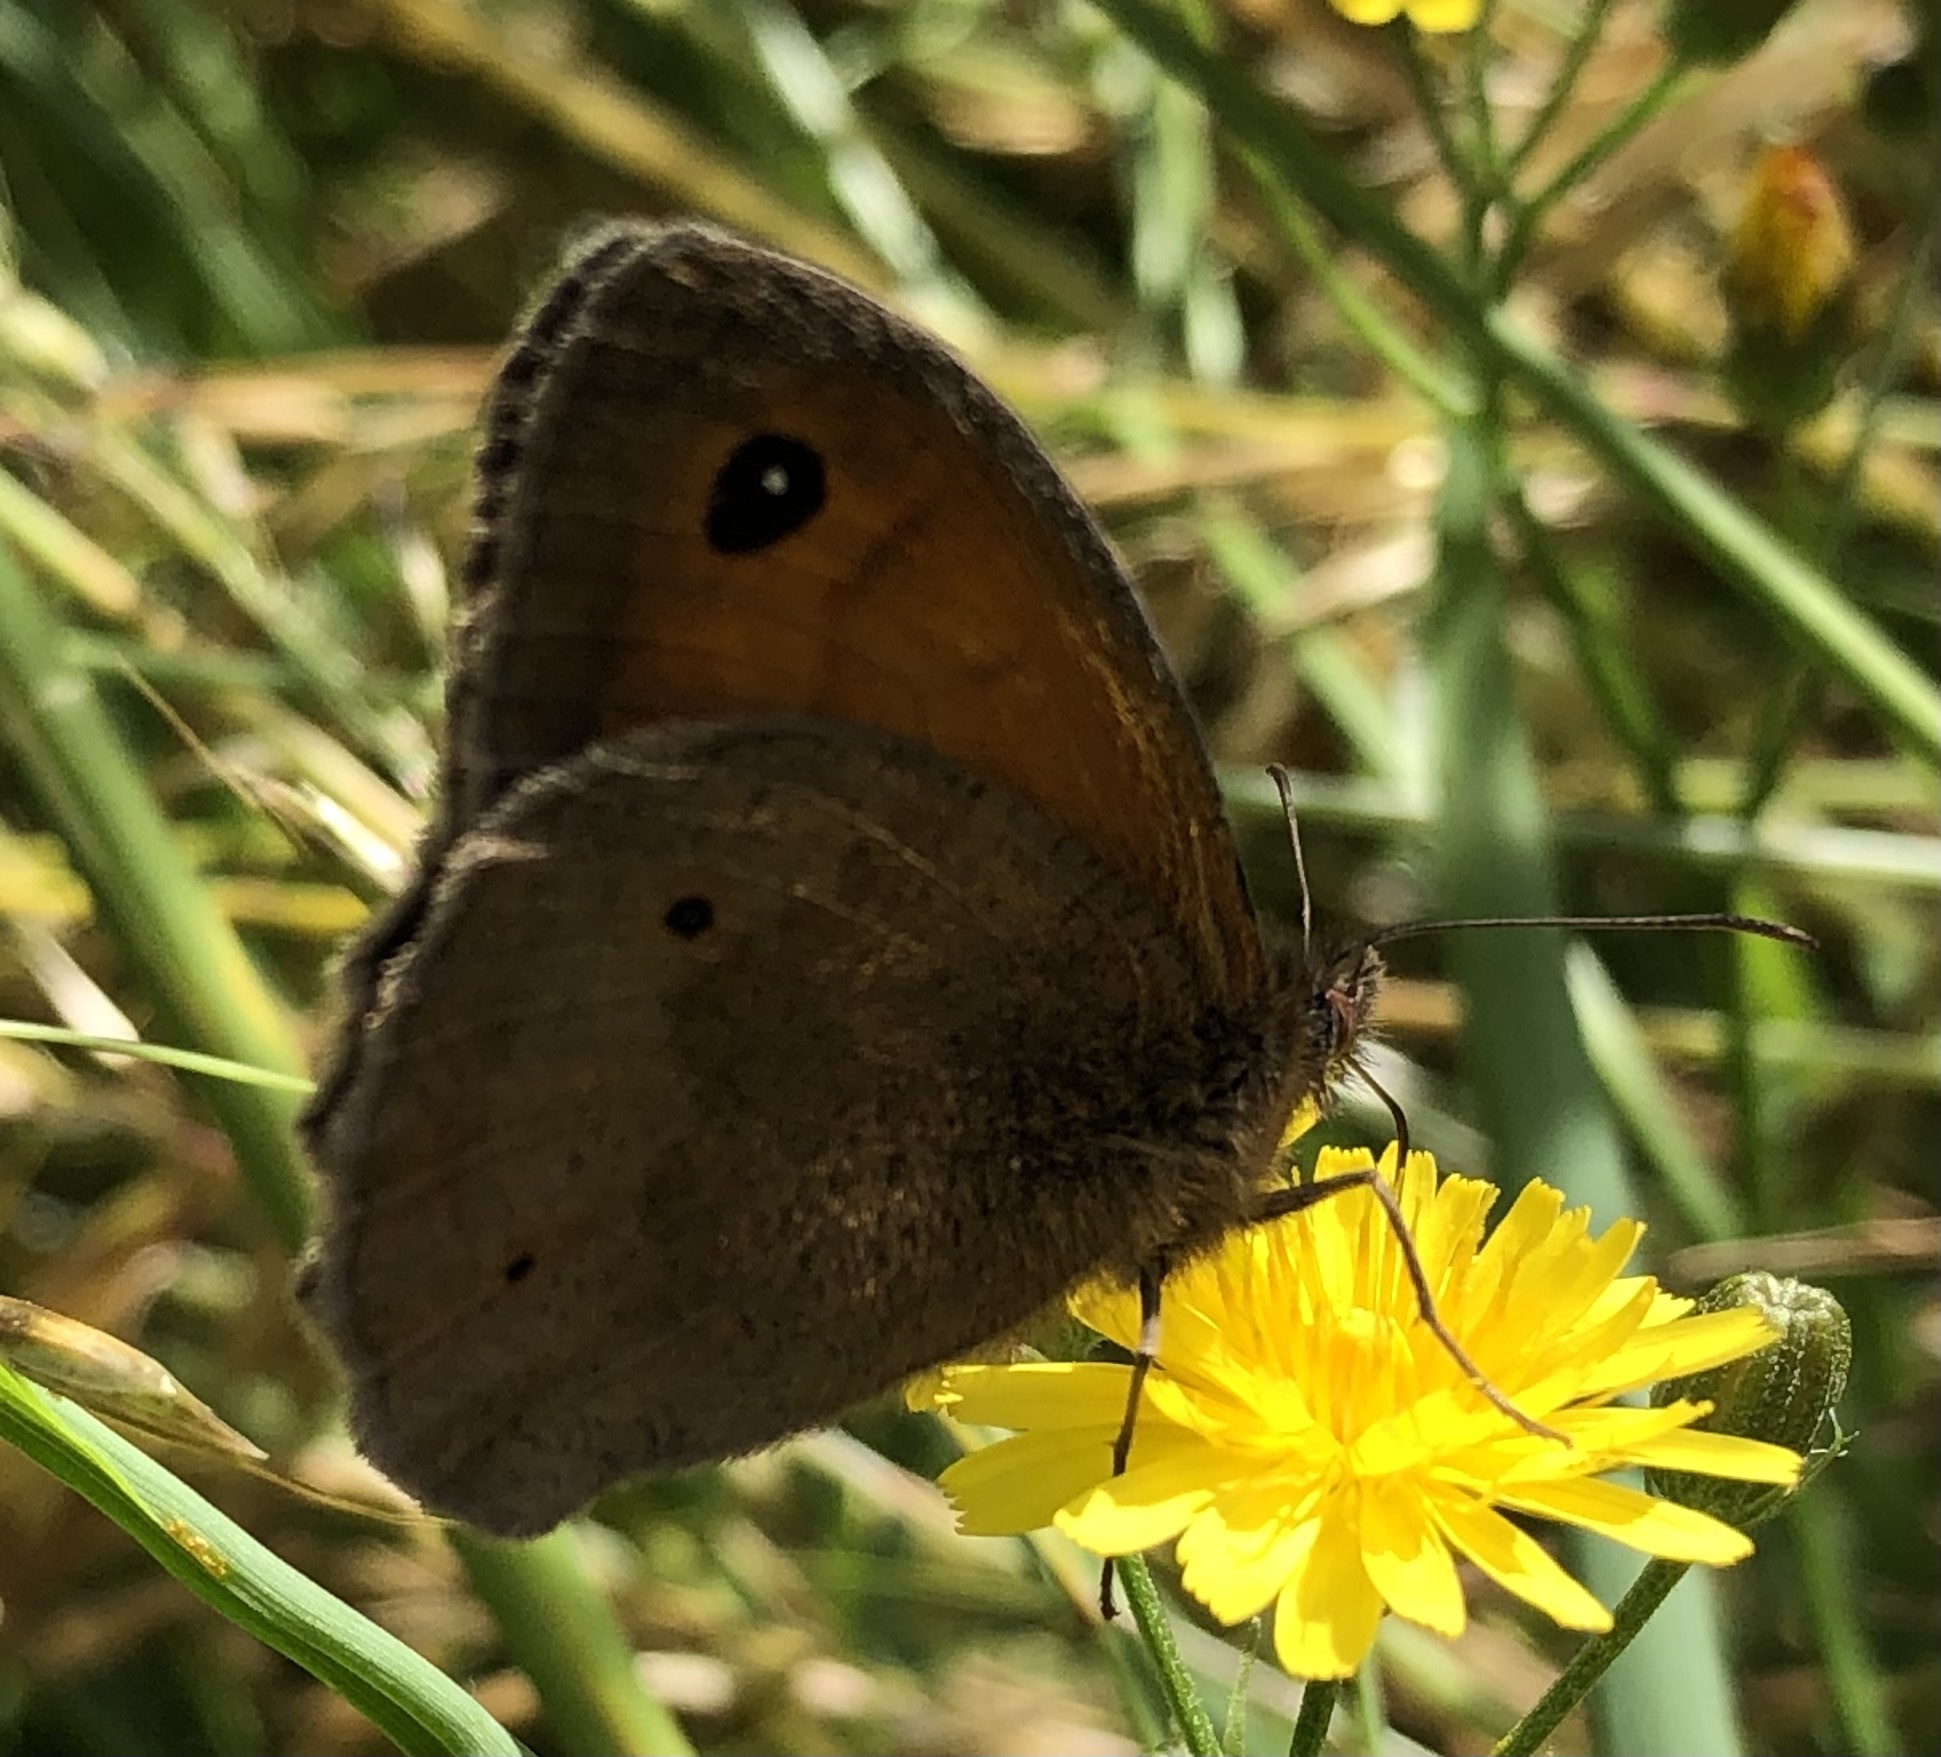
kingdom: Animalia
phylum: Arthropoda
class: Insecta
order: Lepidoptera
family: Nymphalidae
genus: Maniola
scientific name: Maniola jurtina
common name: Meadow brown
